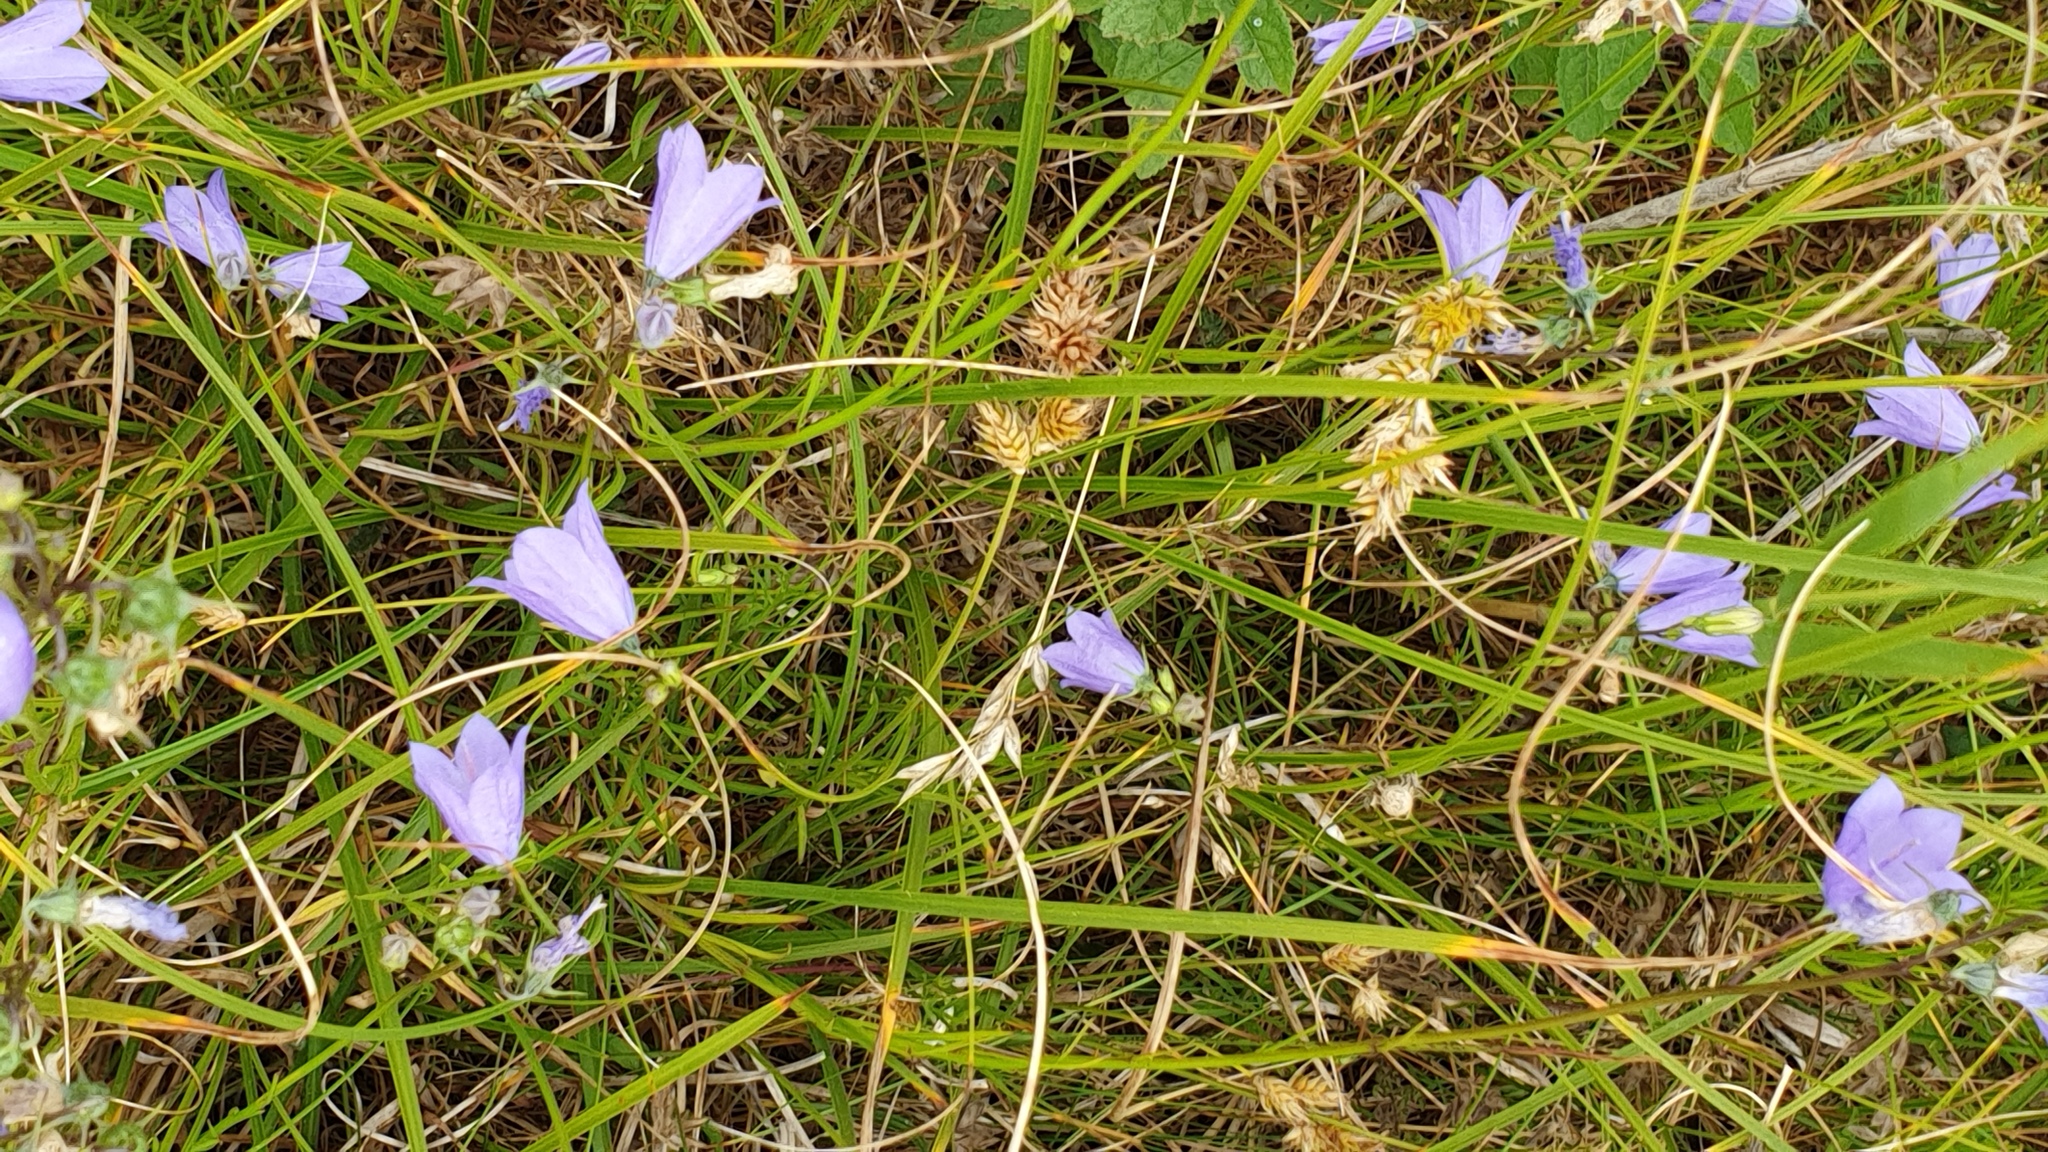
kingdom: Plantae
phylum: Tracheophyta
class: Magnoliopsida
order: Asterales
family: Campanulaceae
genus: Campanula
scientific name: Campanula rotundifolia
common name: Harebell
